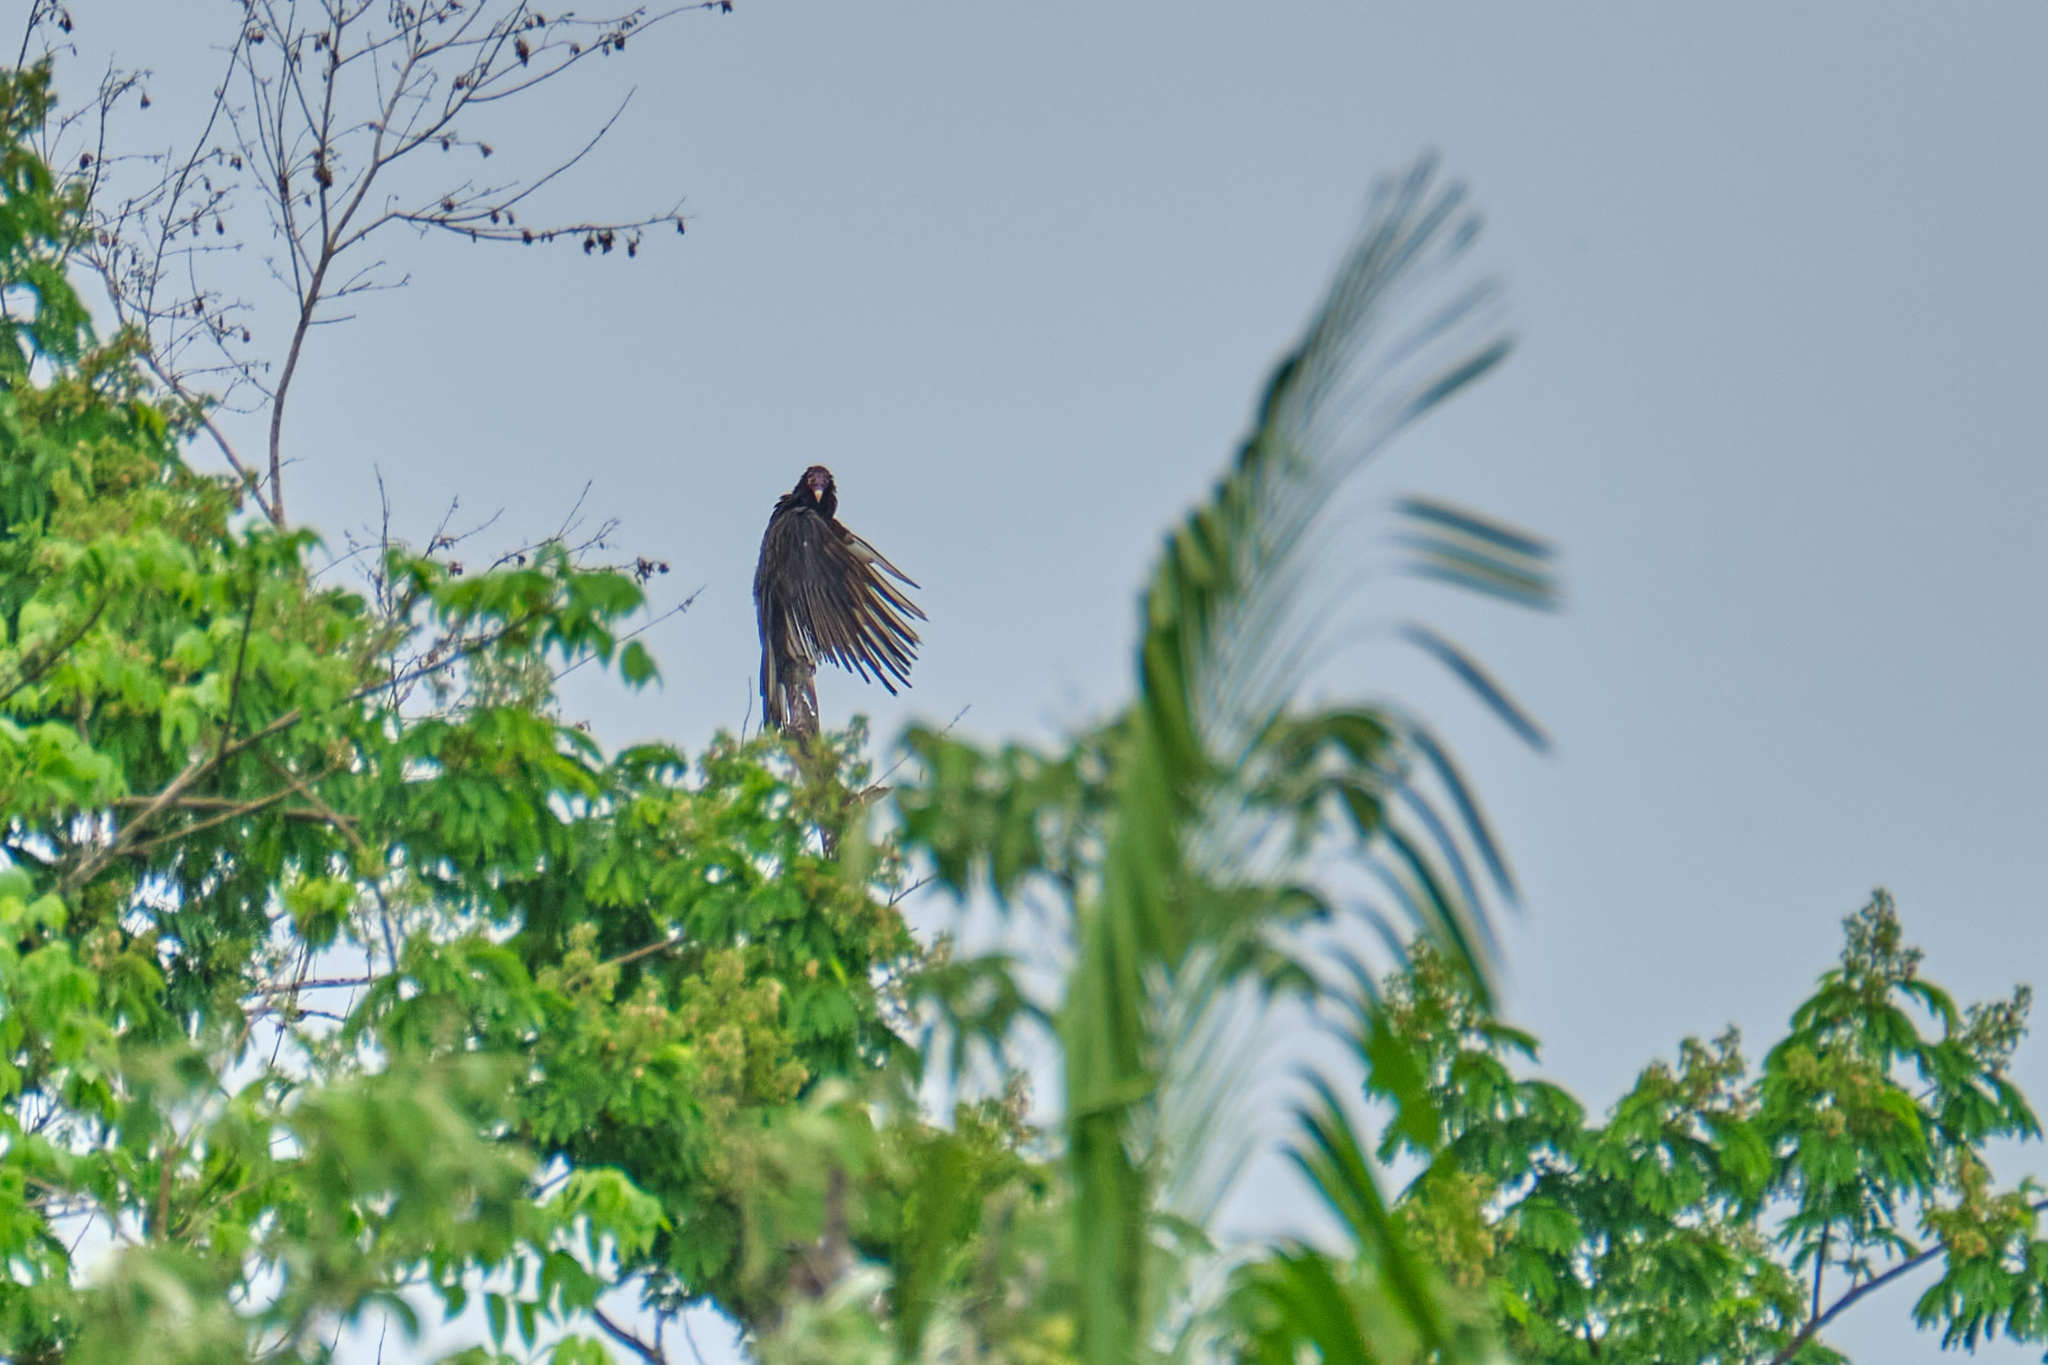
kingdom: Animalia
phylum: Chordata
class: Aves
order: Accipitriformes
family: Cathartidae
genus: Cathartes
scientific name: Cathartes aura
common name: Turkey vulture
